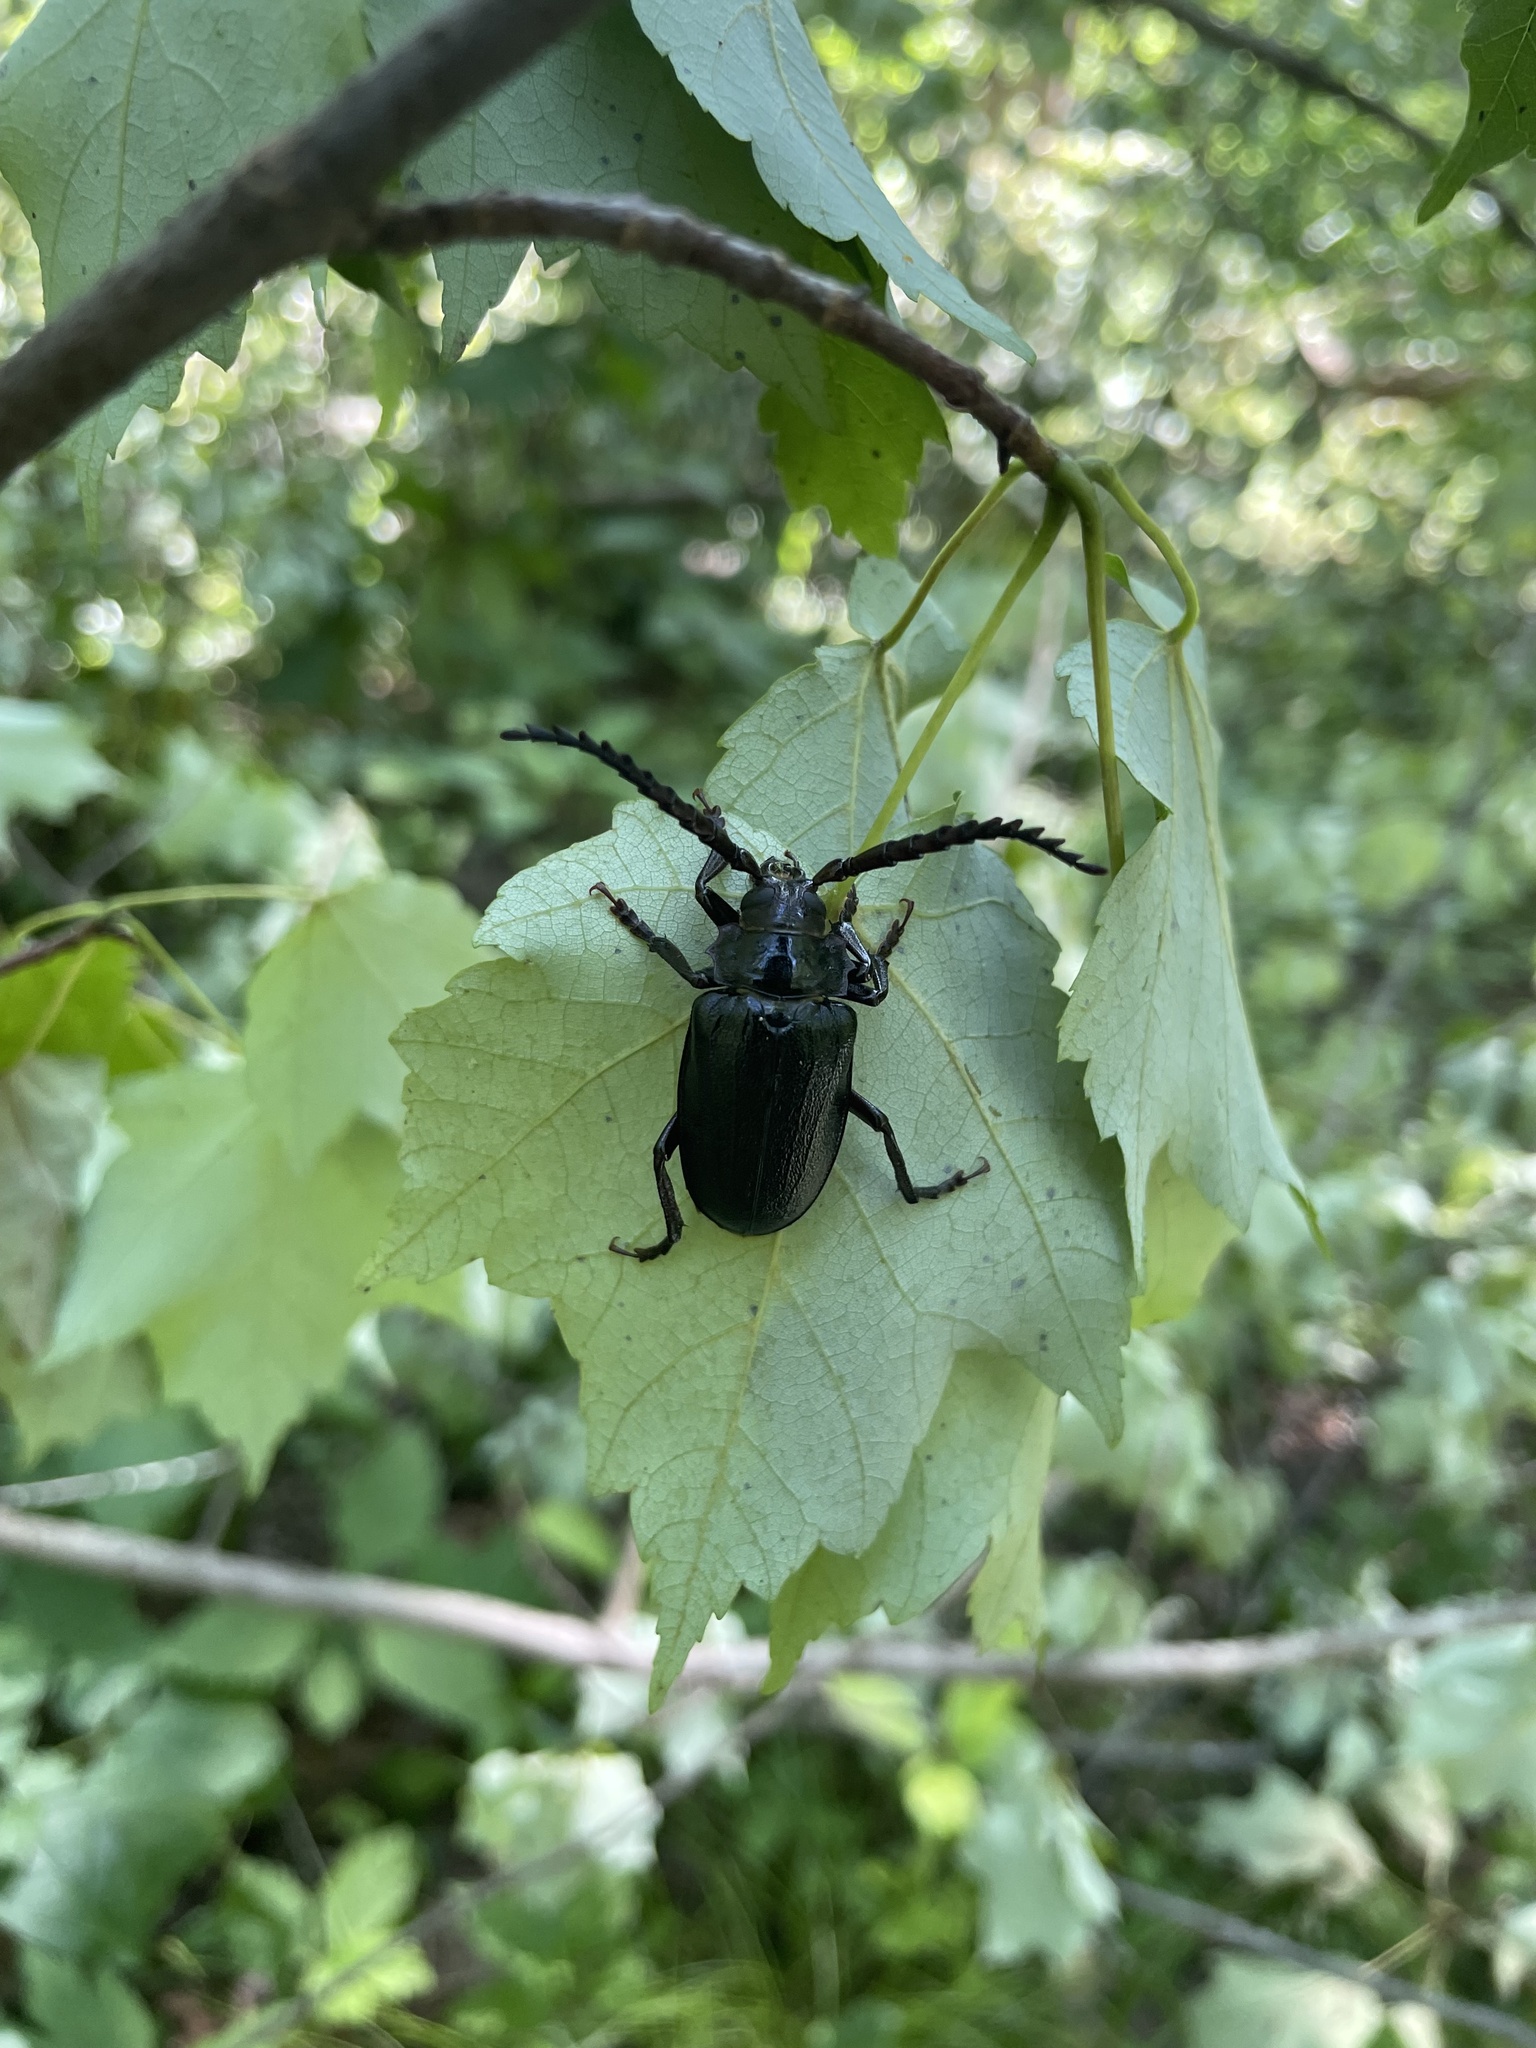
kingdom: Animalia
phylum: Arthropoda
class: Insecta
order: Coleoptera
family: Cerambycidae
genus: Prionus
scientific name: Prionus laticollis
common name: Broad necked prionus
